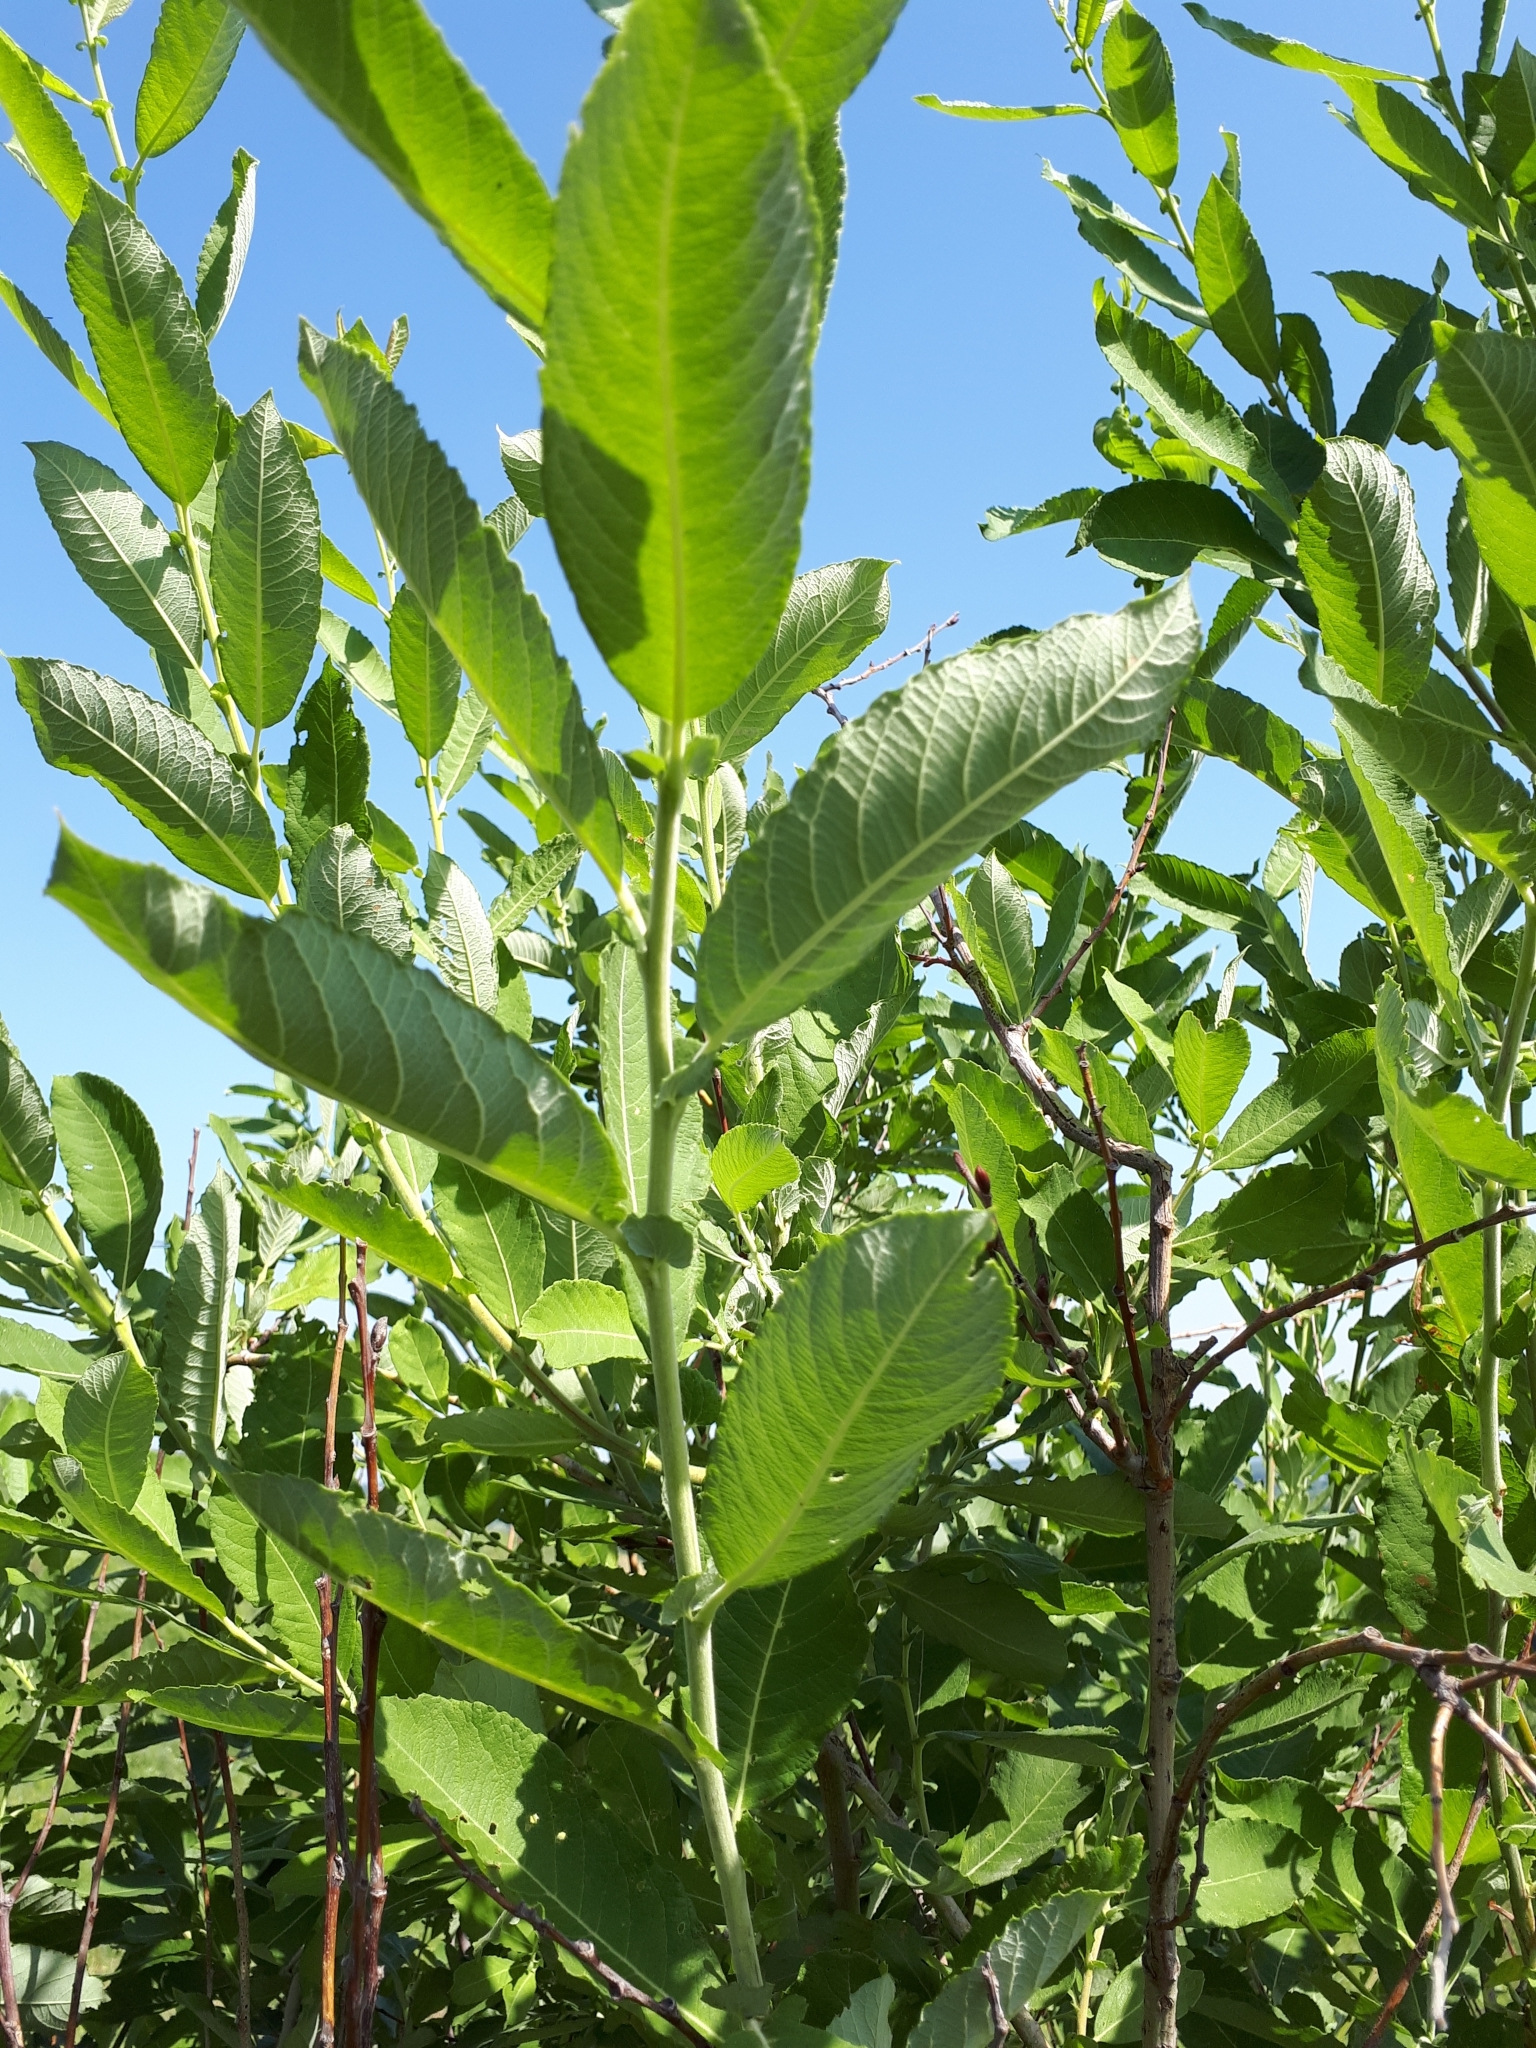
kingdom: Plantae
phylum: Tracheophyta
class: Magnoliopsida
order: Malpighiales
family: Salicaceae
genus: Salix
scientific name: Salix cinerea
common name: Common sallow
